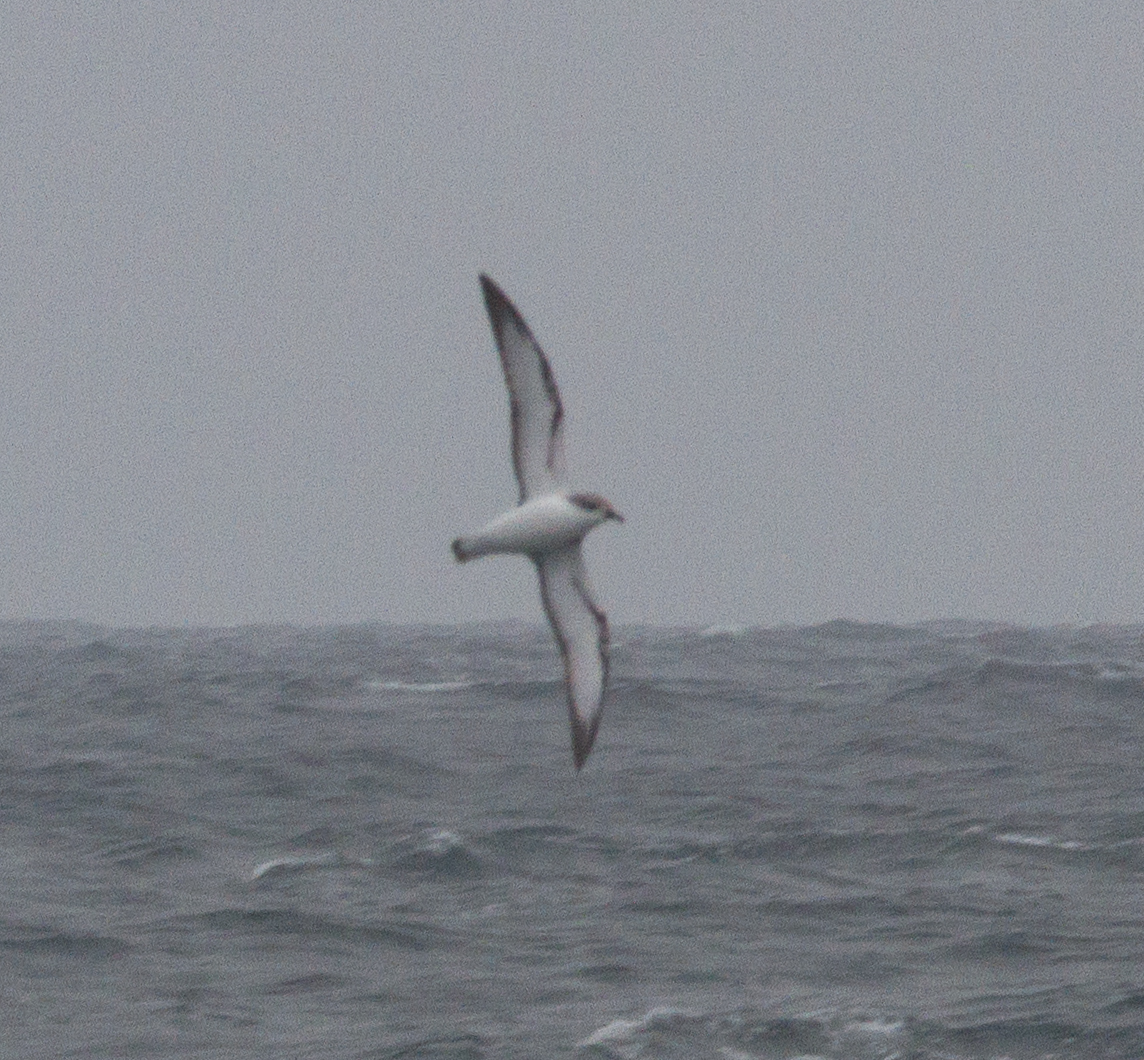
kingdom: Animalia
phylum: Chordata
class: Aves
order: Procellariiformes
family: Procellariidae
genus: Pterodroma
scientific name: Pterodroma cookii
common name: Cook's petrel
